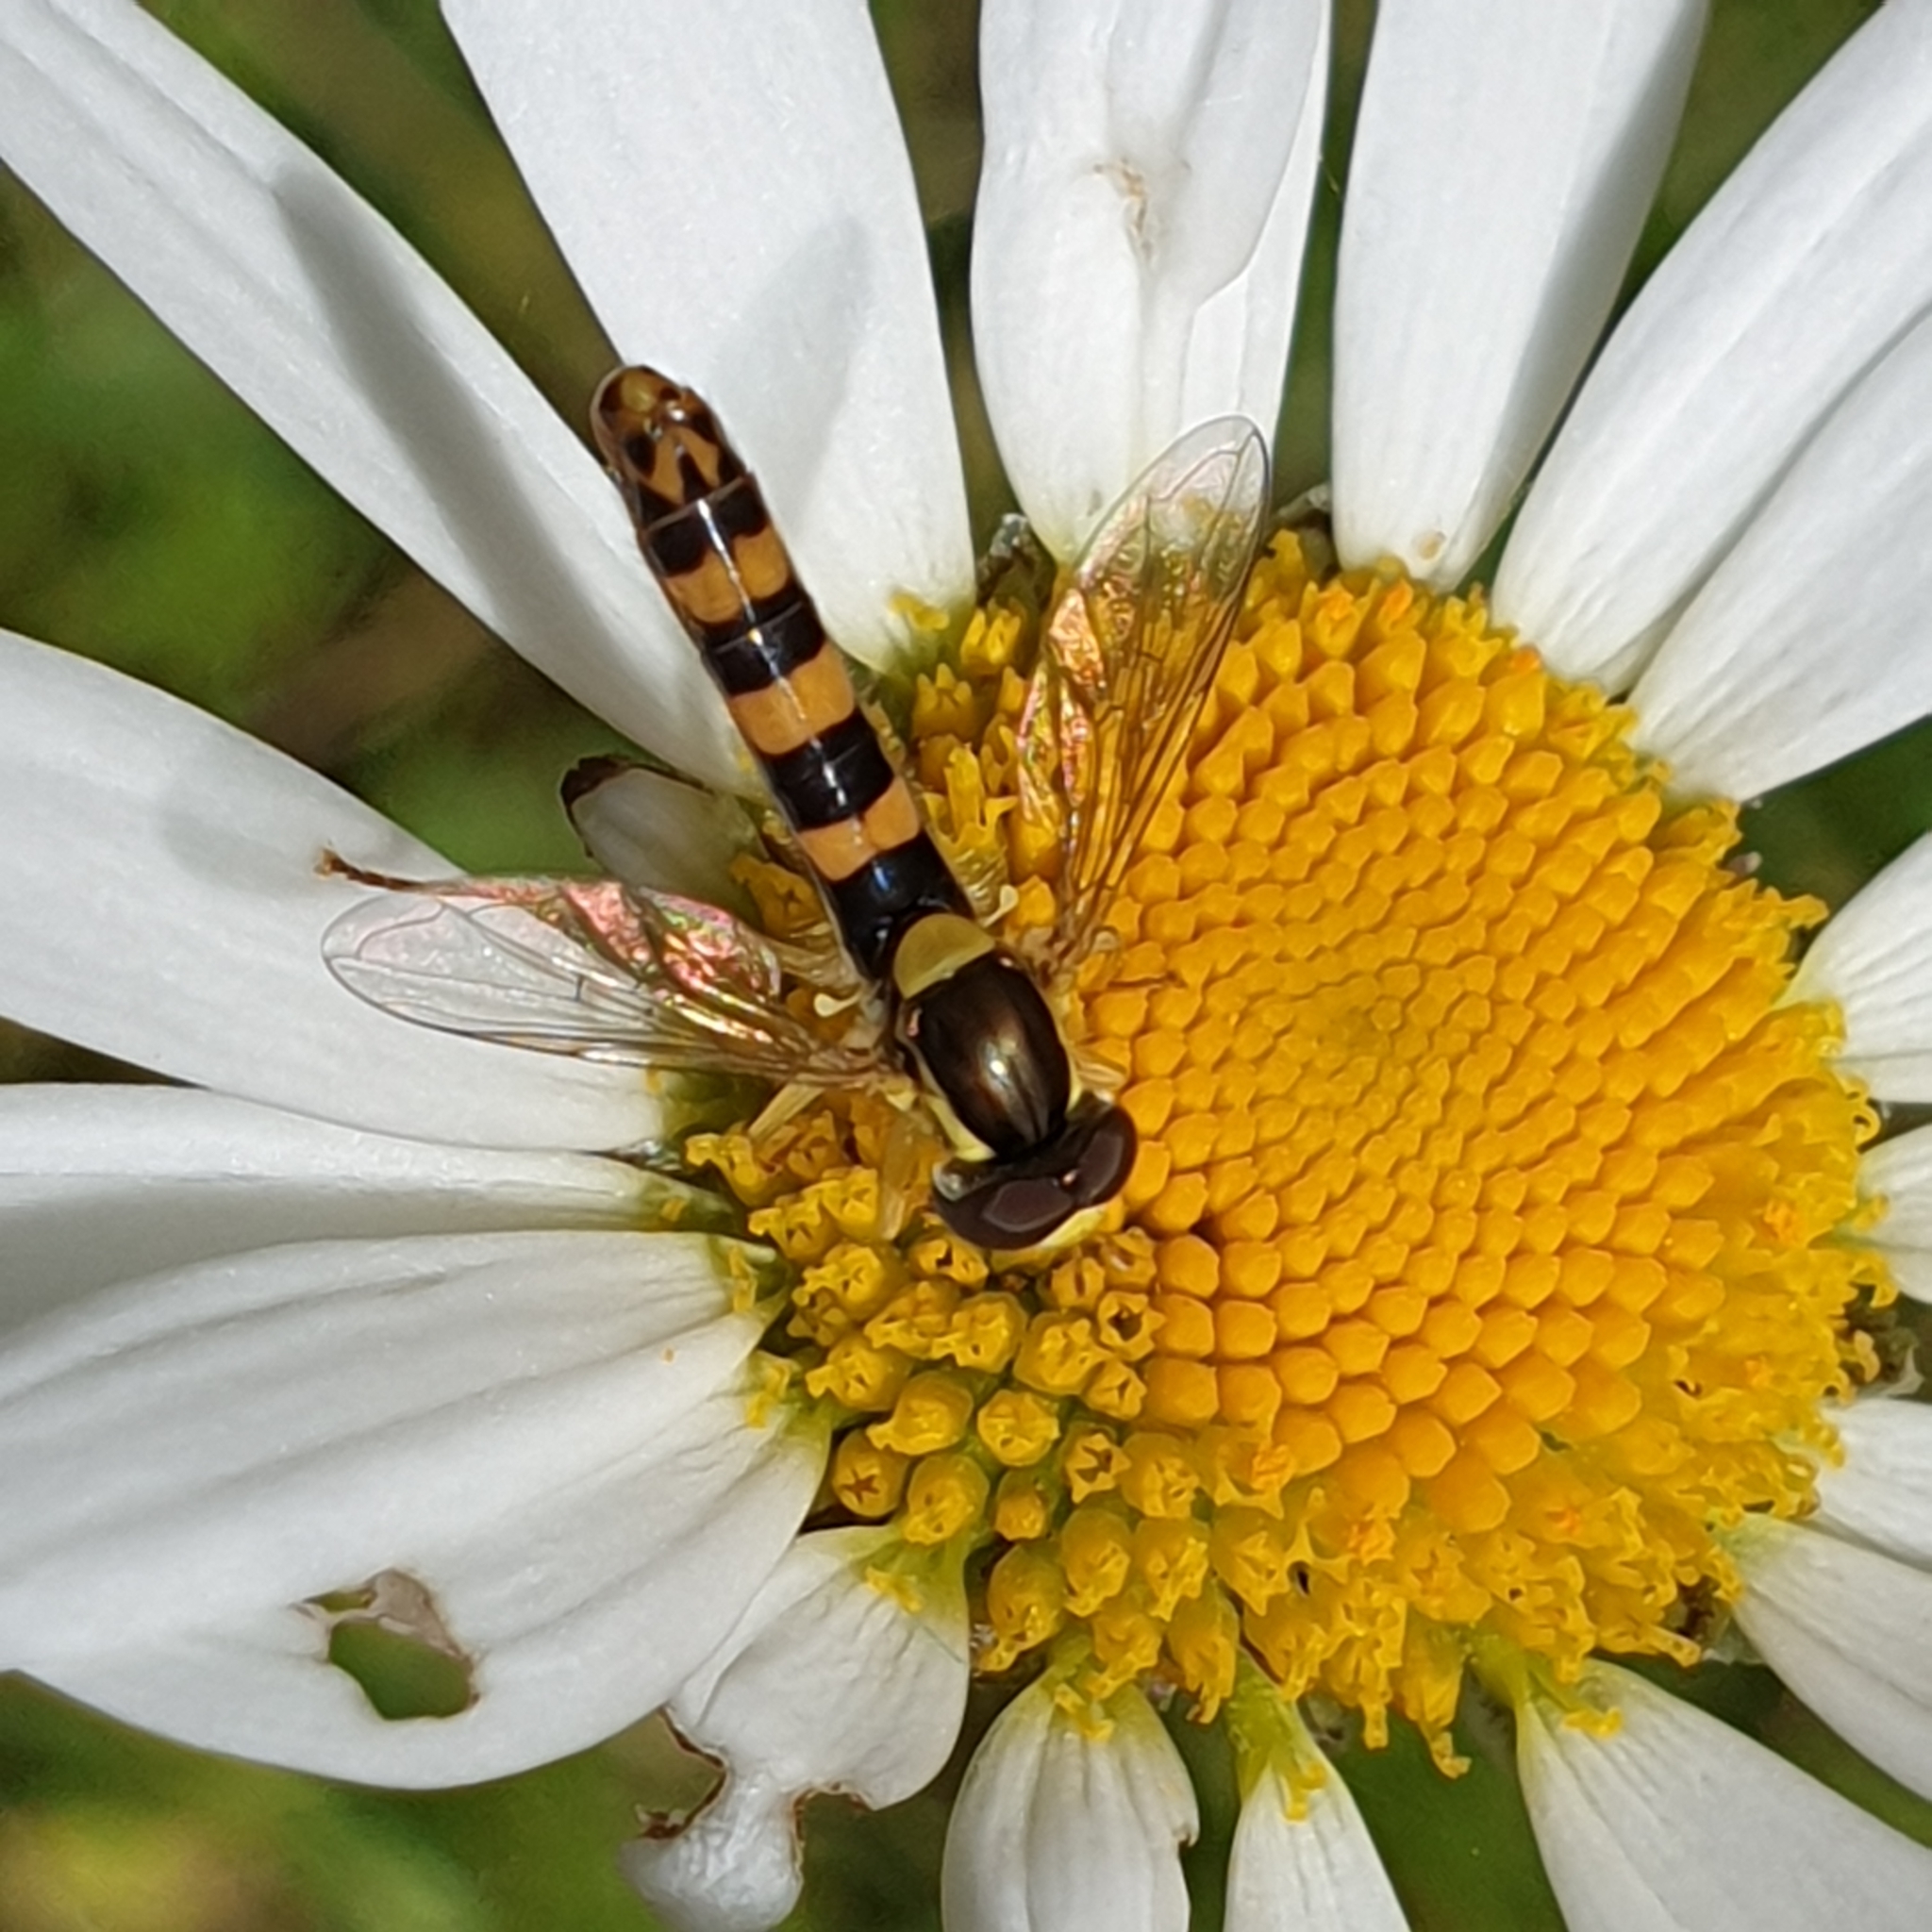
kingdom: Animalia
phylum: Arthropoda
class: Insecta
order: Diptera
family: Syrphidae
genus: Sphaerophoria
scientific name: Sphaerophoria scripta
